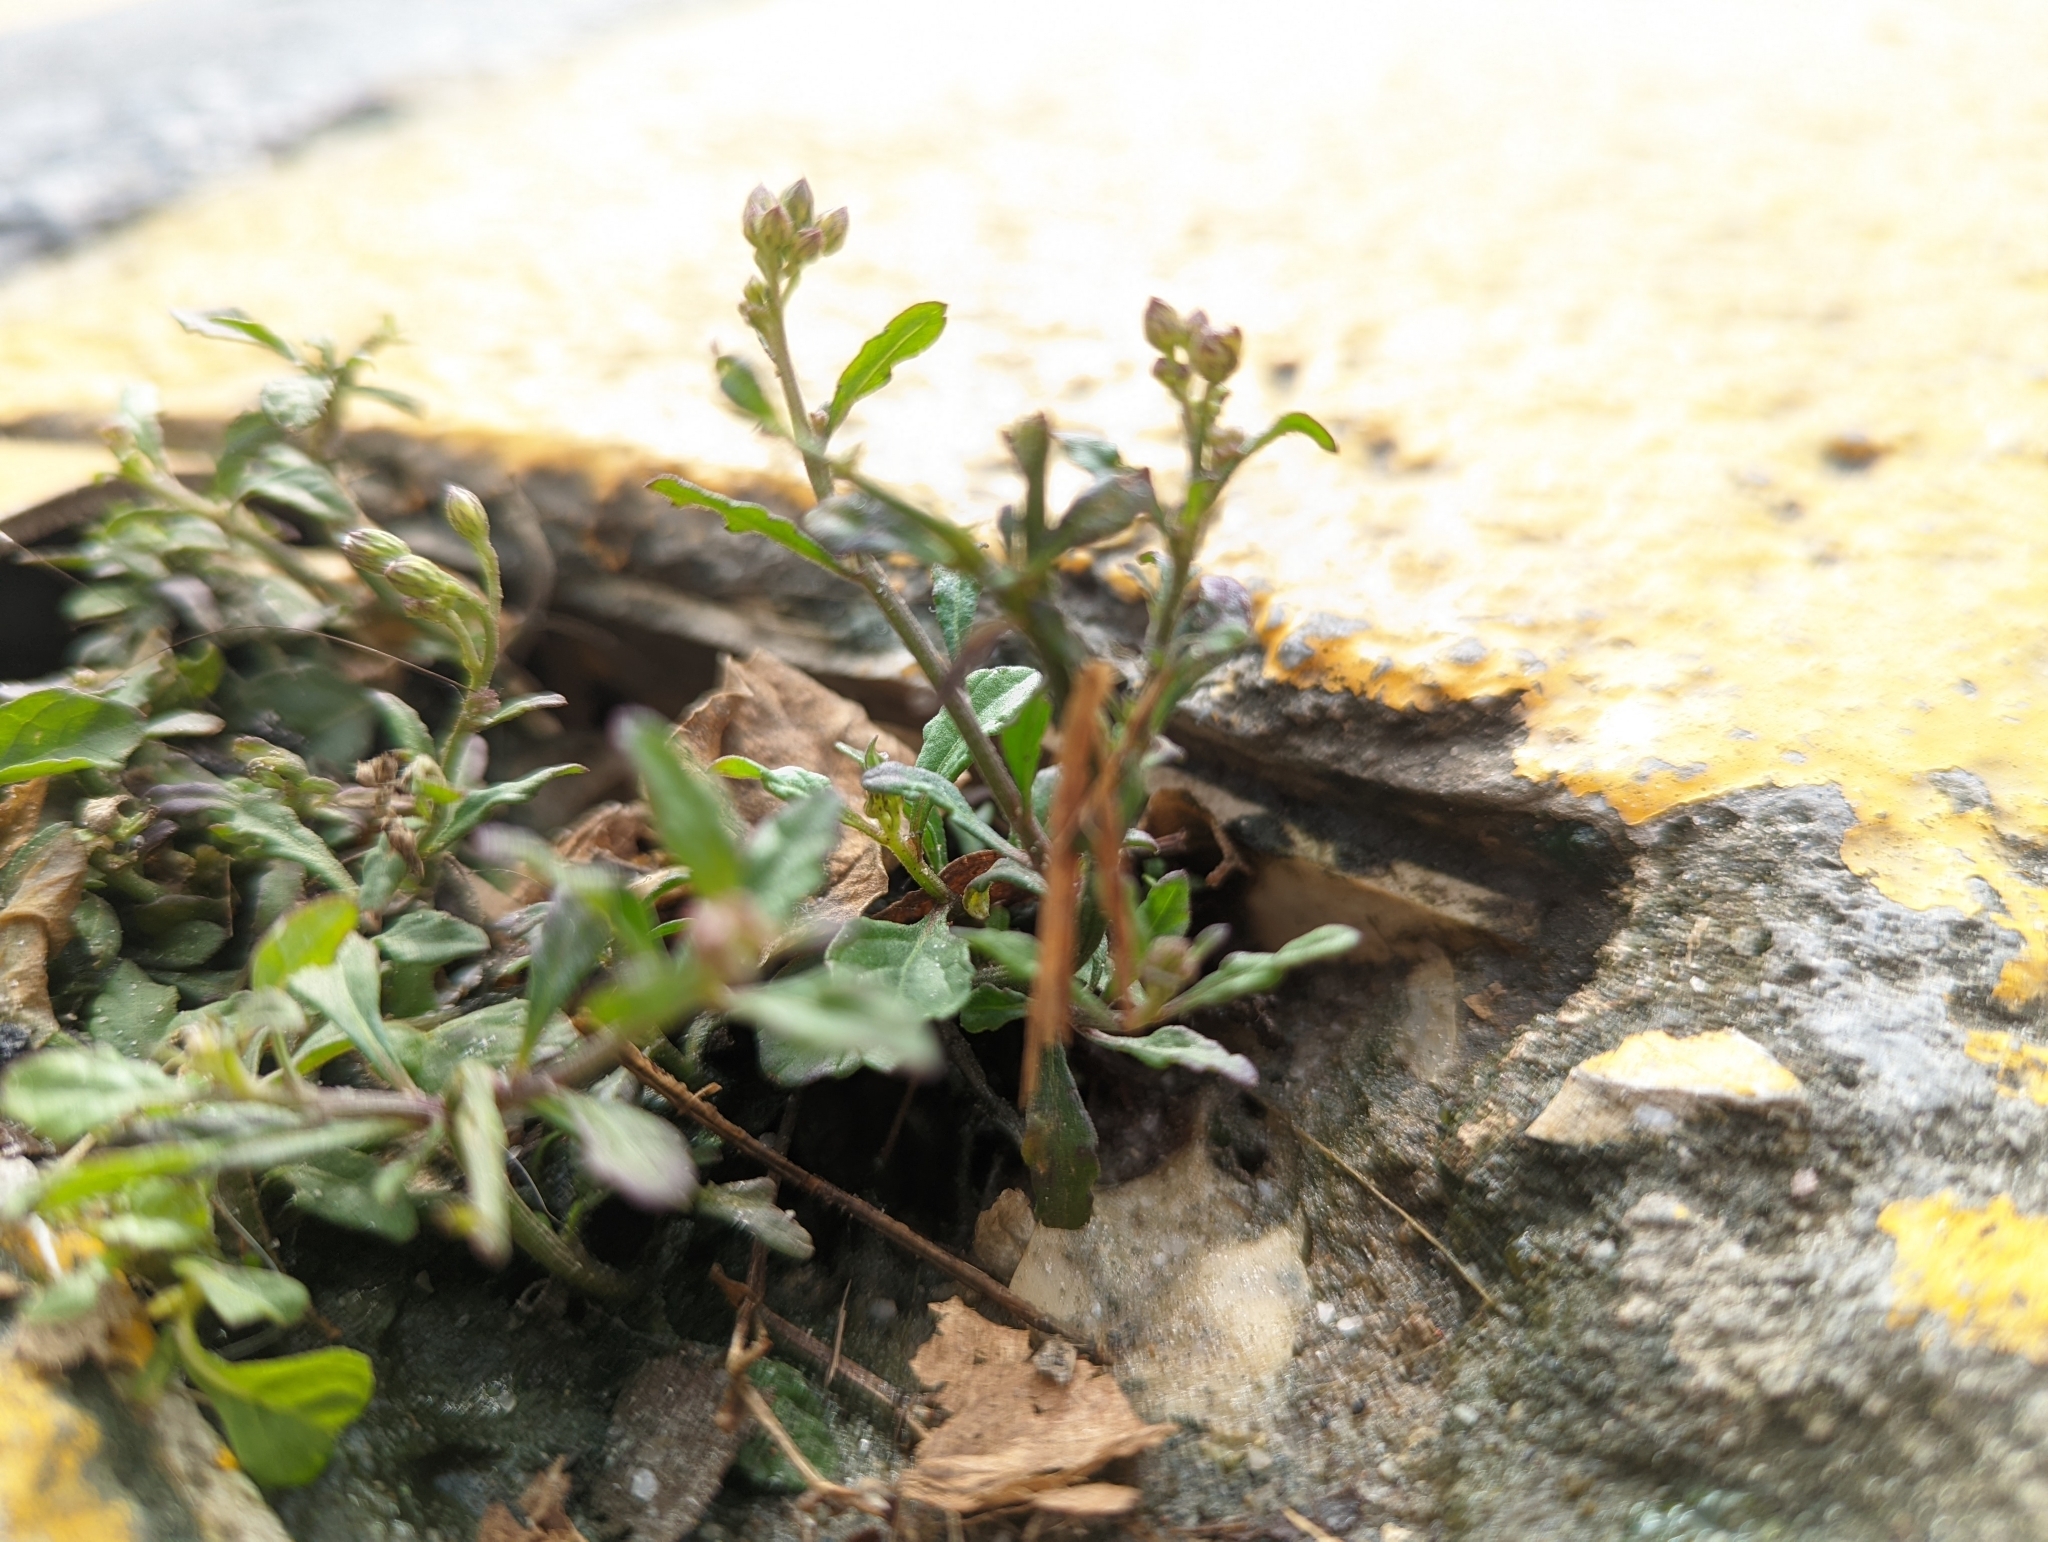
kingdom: Plantae
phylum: Tracheophyta
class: Magnoliopsida
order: Asterales
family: Asteraceae
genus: Cyanthillium
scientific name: Cyanthillium cinereum
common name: Little ironweed
